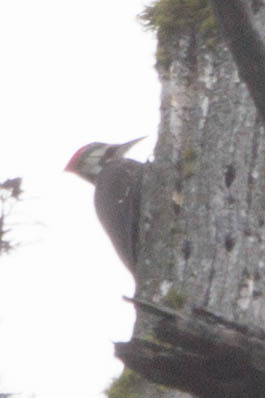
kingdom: Animalia
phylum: Chordata
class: Aves
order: Piciformes
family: Picidae
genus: Dryocopus
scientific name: Dryocopus pileatus
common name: Pileated woodpecker
